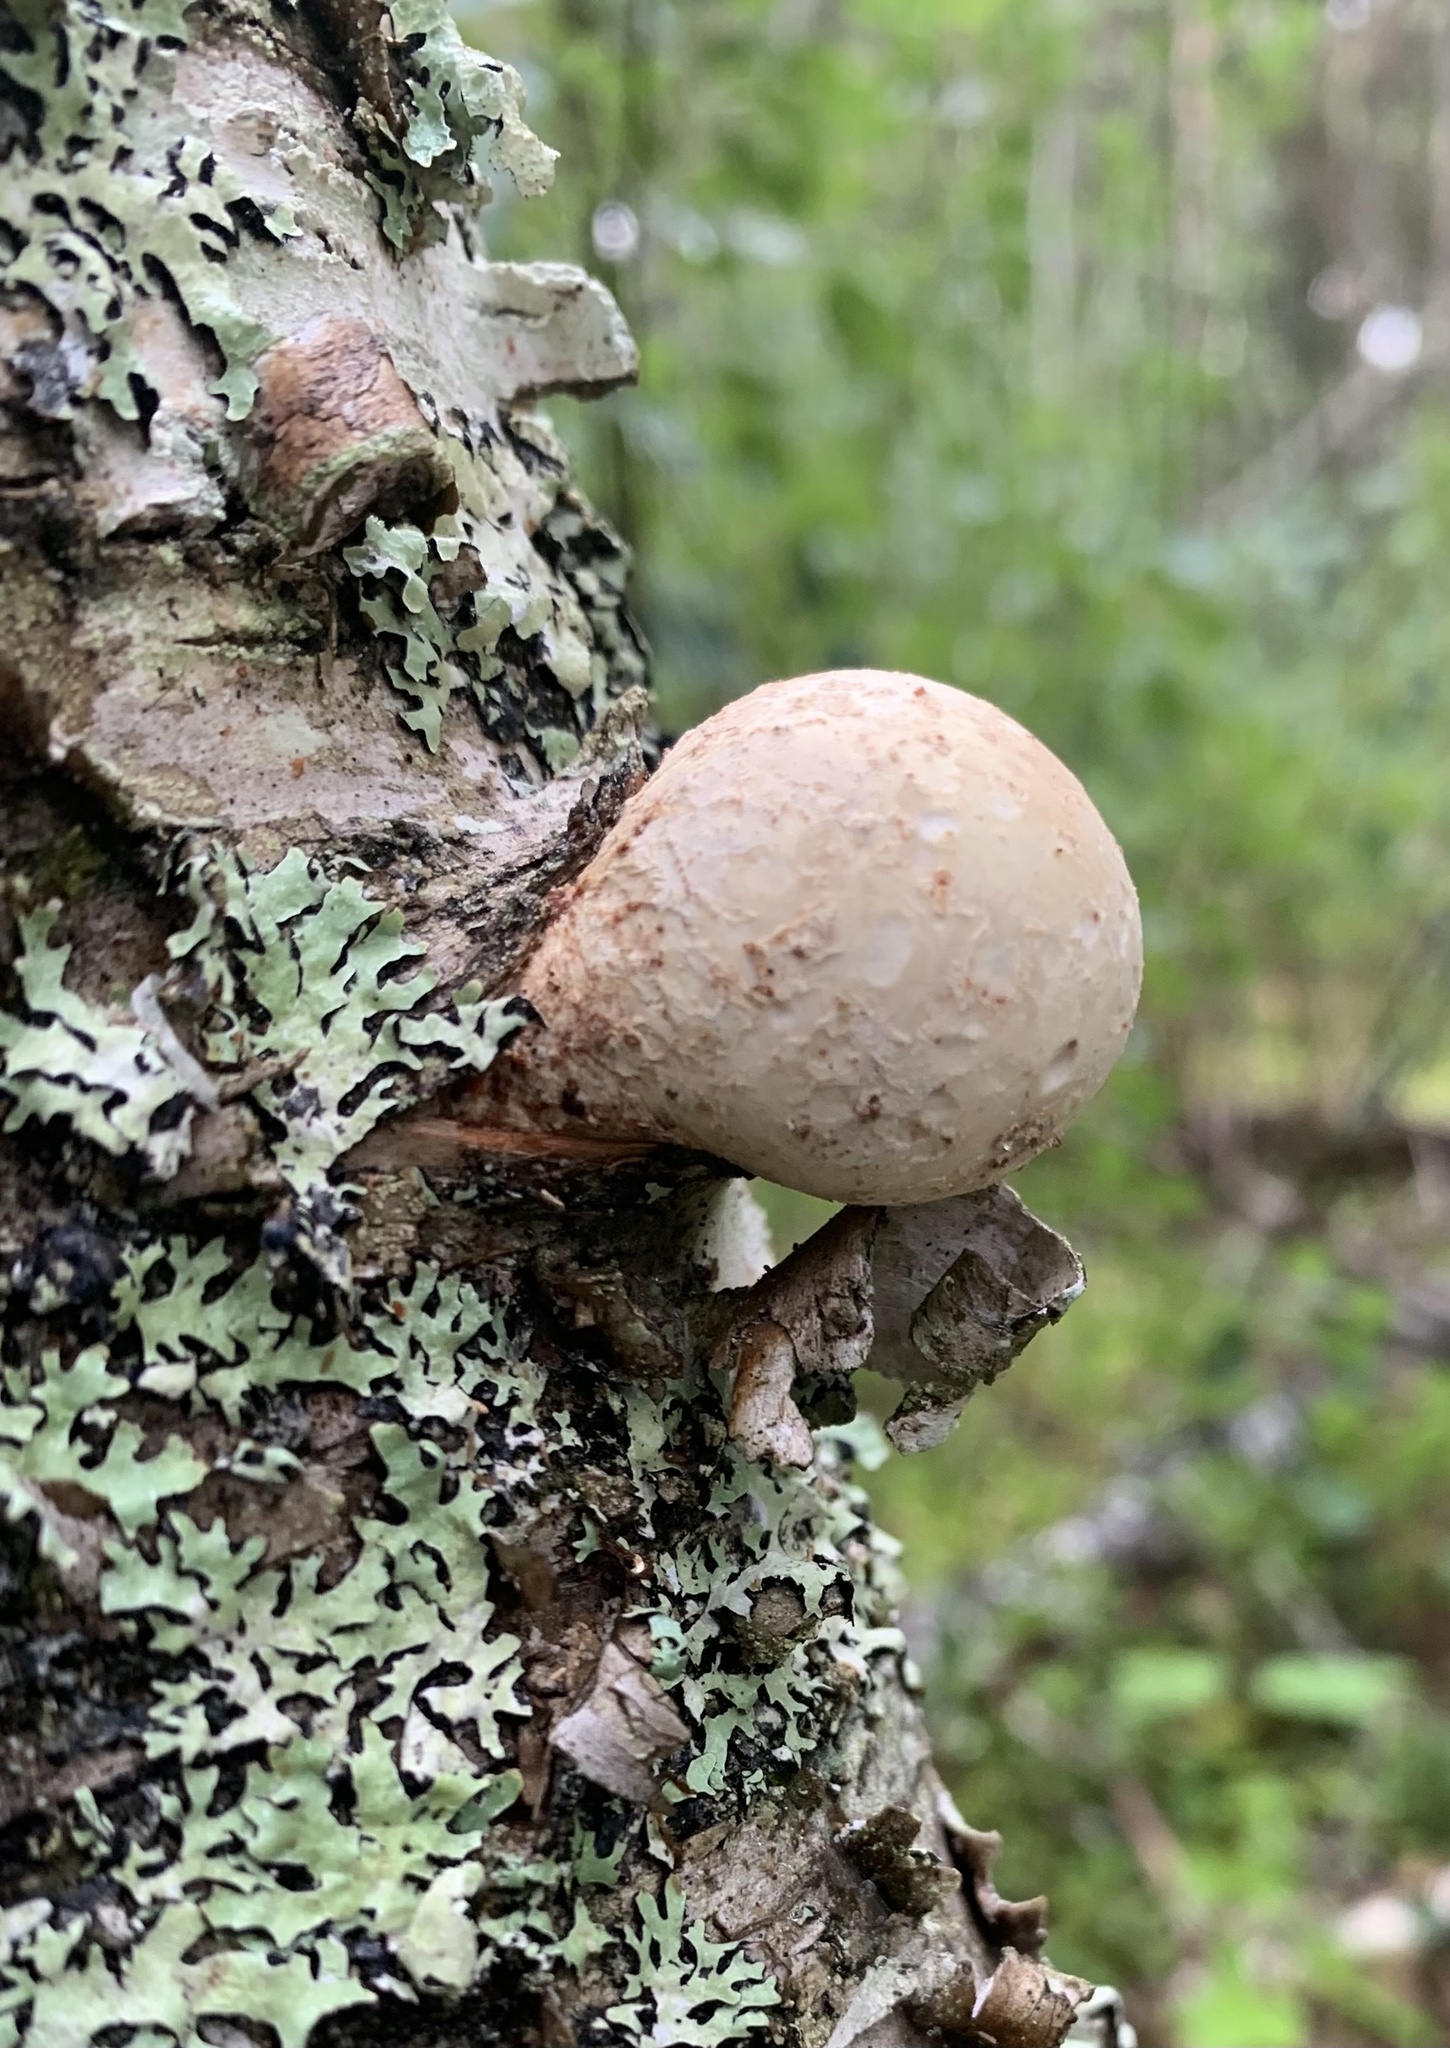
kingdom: Fungi
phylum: Basidiomycota
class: Agaricomycetes
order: Polyporales
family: Fomitopsidaceae
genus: Fomitopsis
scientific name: Fomitopsis betulina
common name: Birch polypore
